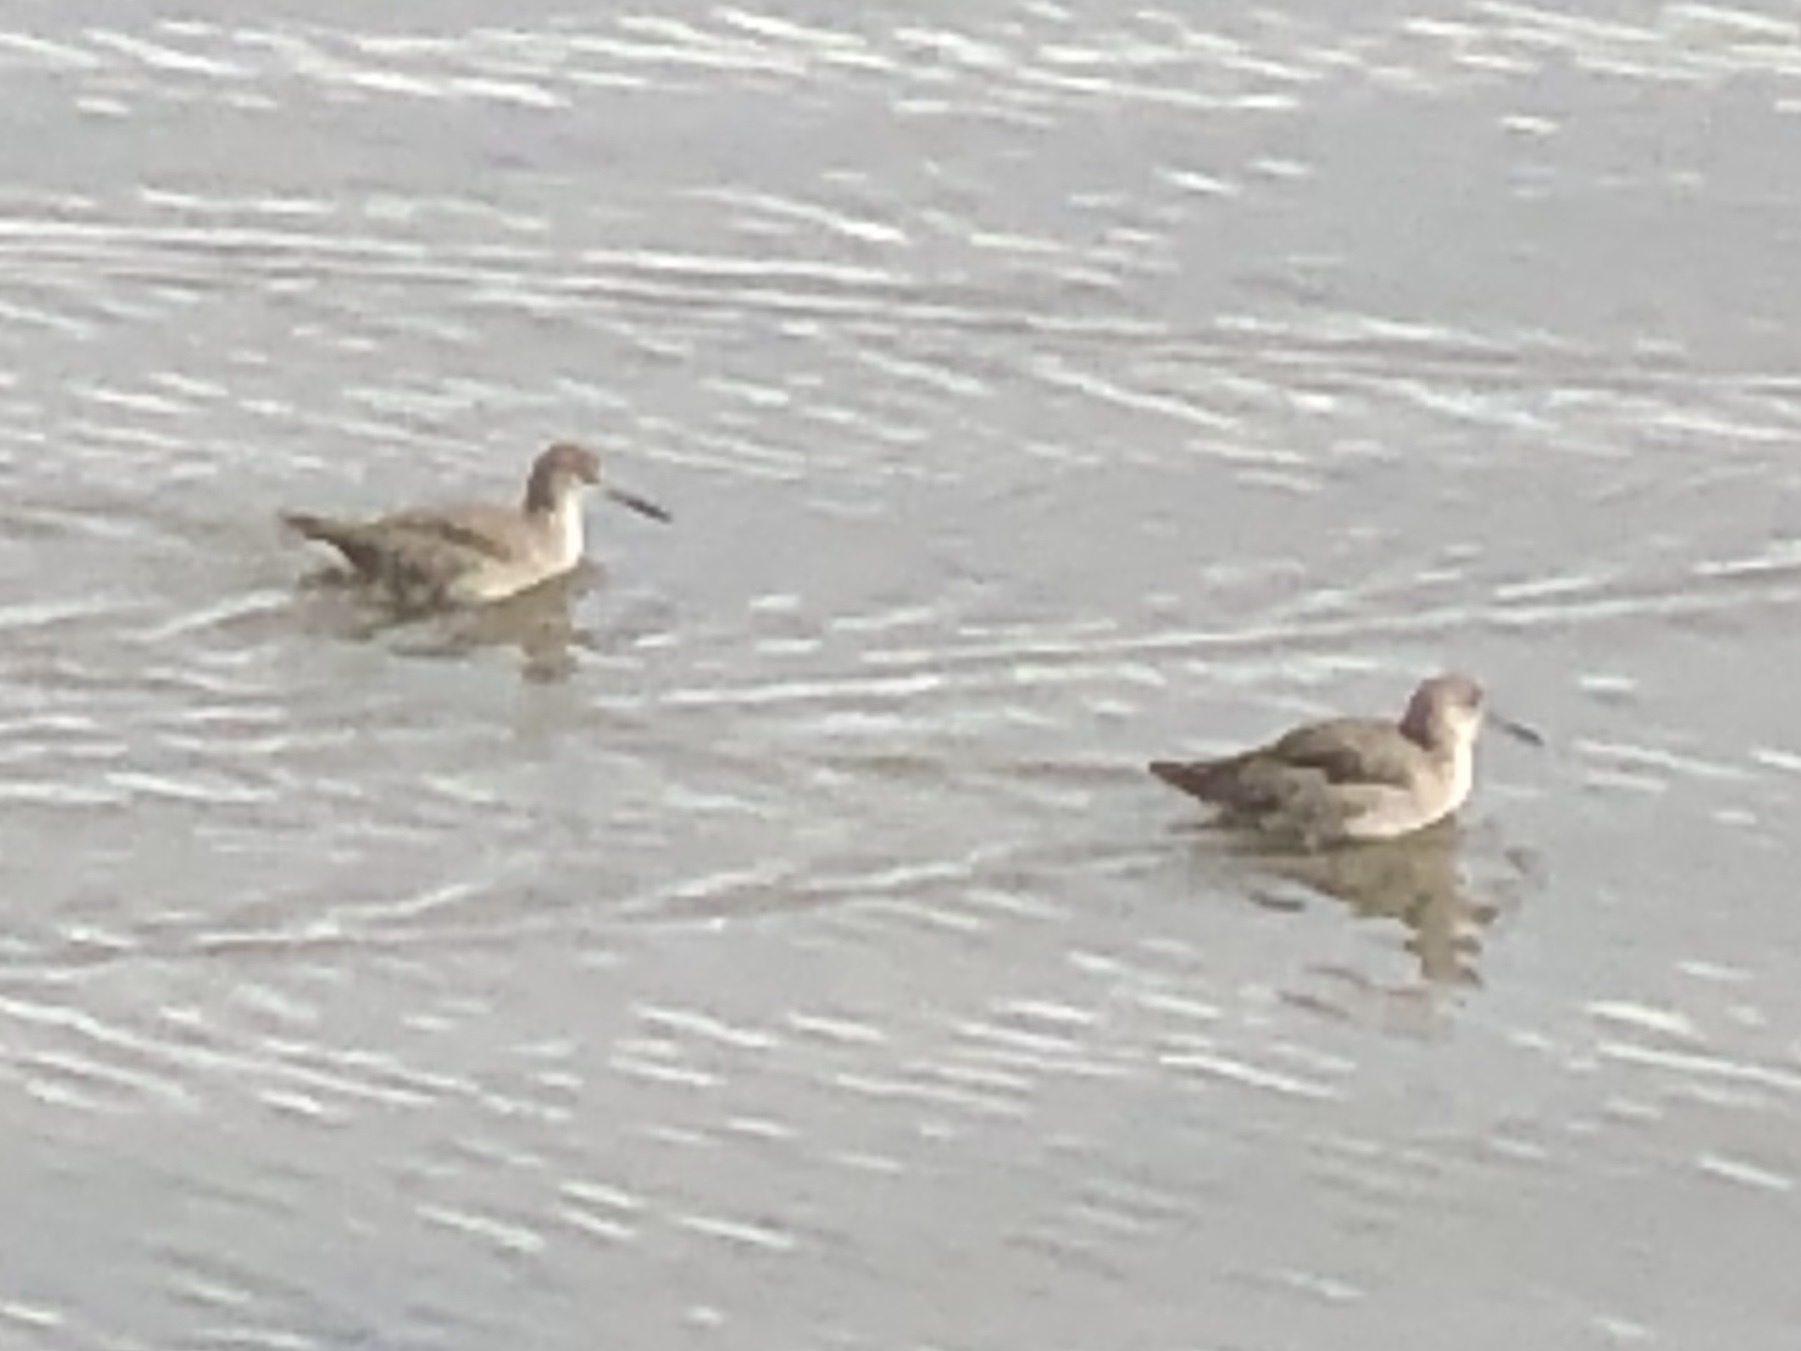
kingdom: Animalia
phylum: Chordata
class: Aves
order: Charadriiformes
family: Scolopacidae
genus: Tringa
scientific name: Tringa semipalmata
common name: Willet
